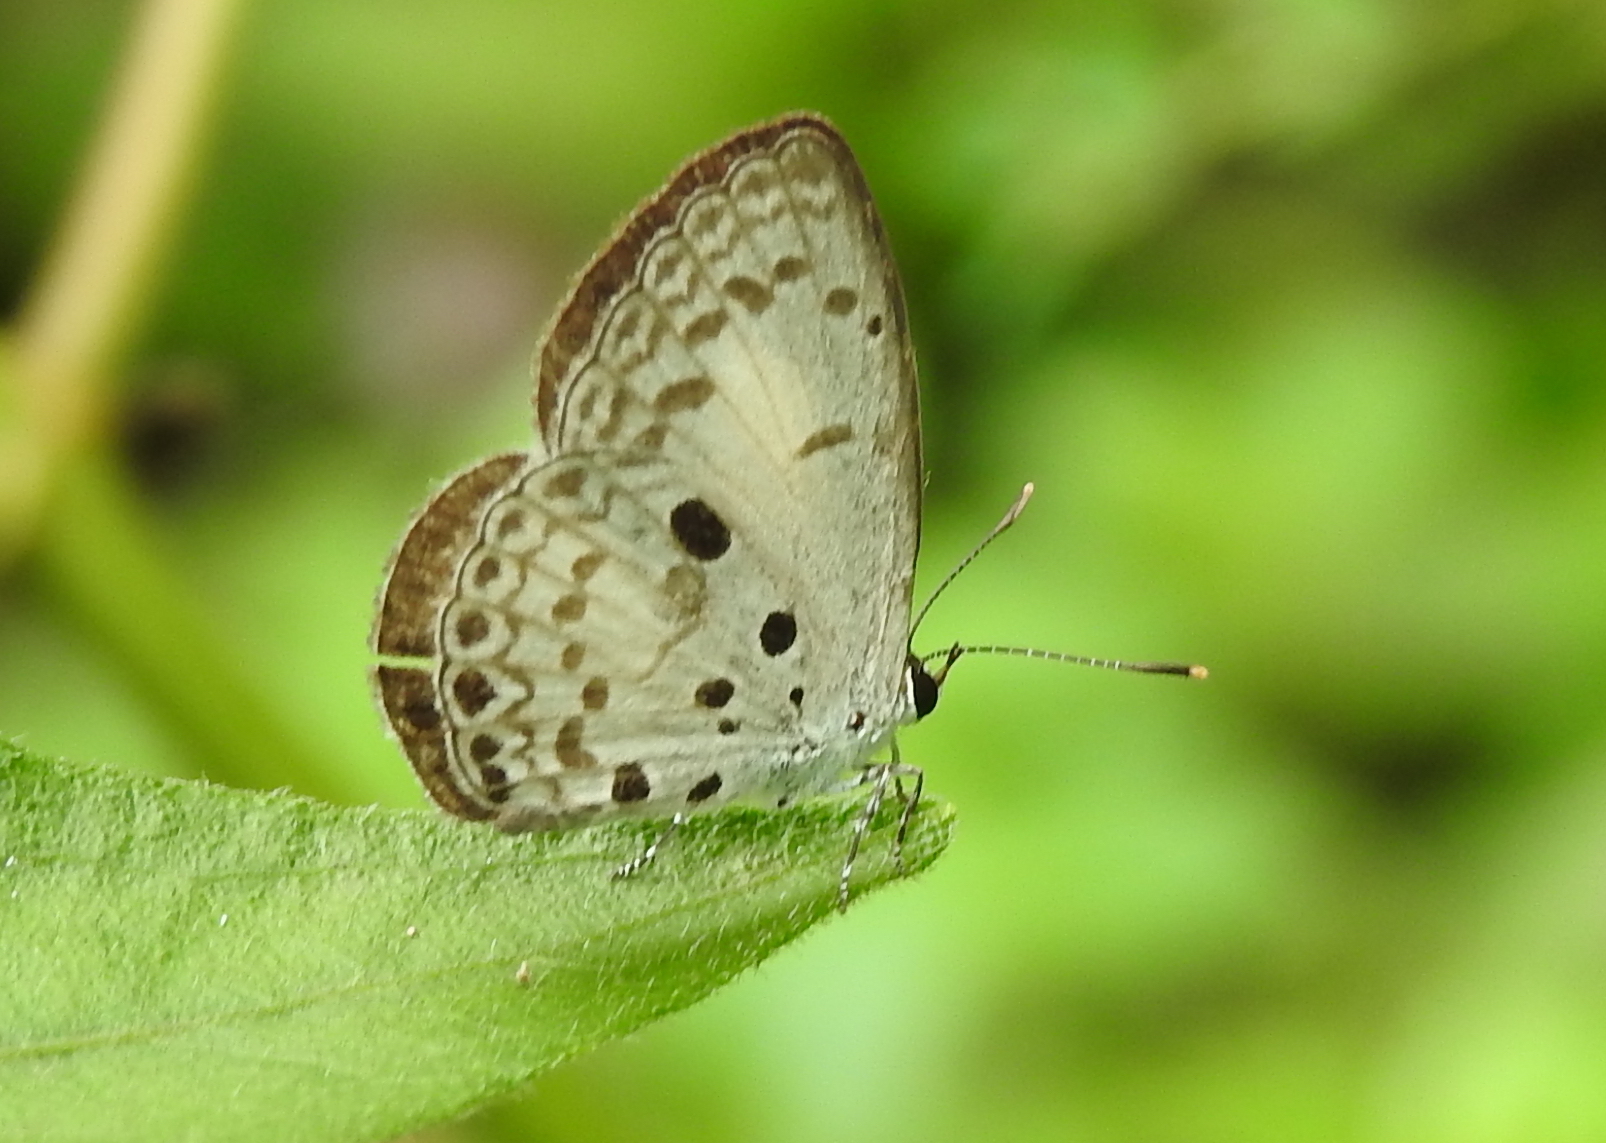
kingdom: Animalia
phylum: Arthropoda
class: Insecta
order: Lepidoptera
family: Lycaenidae
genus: Acytolepis
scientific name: Acytolepis puspa
